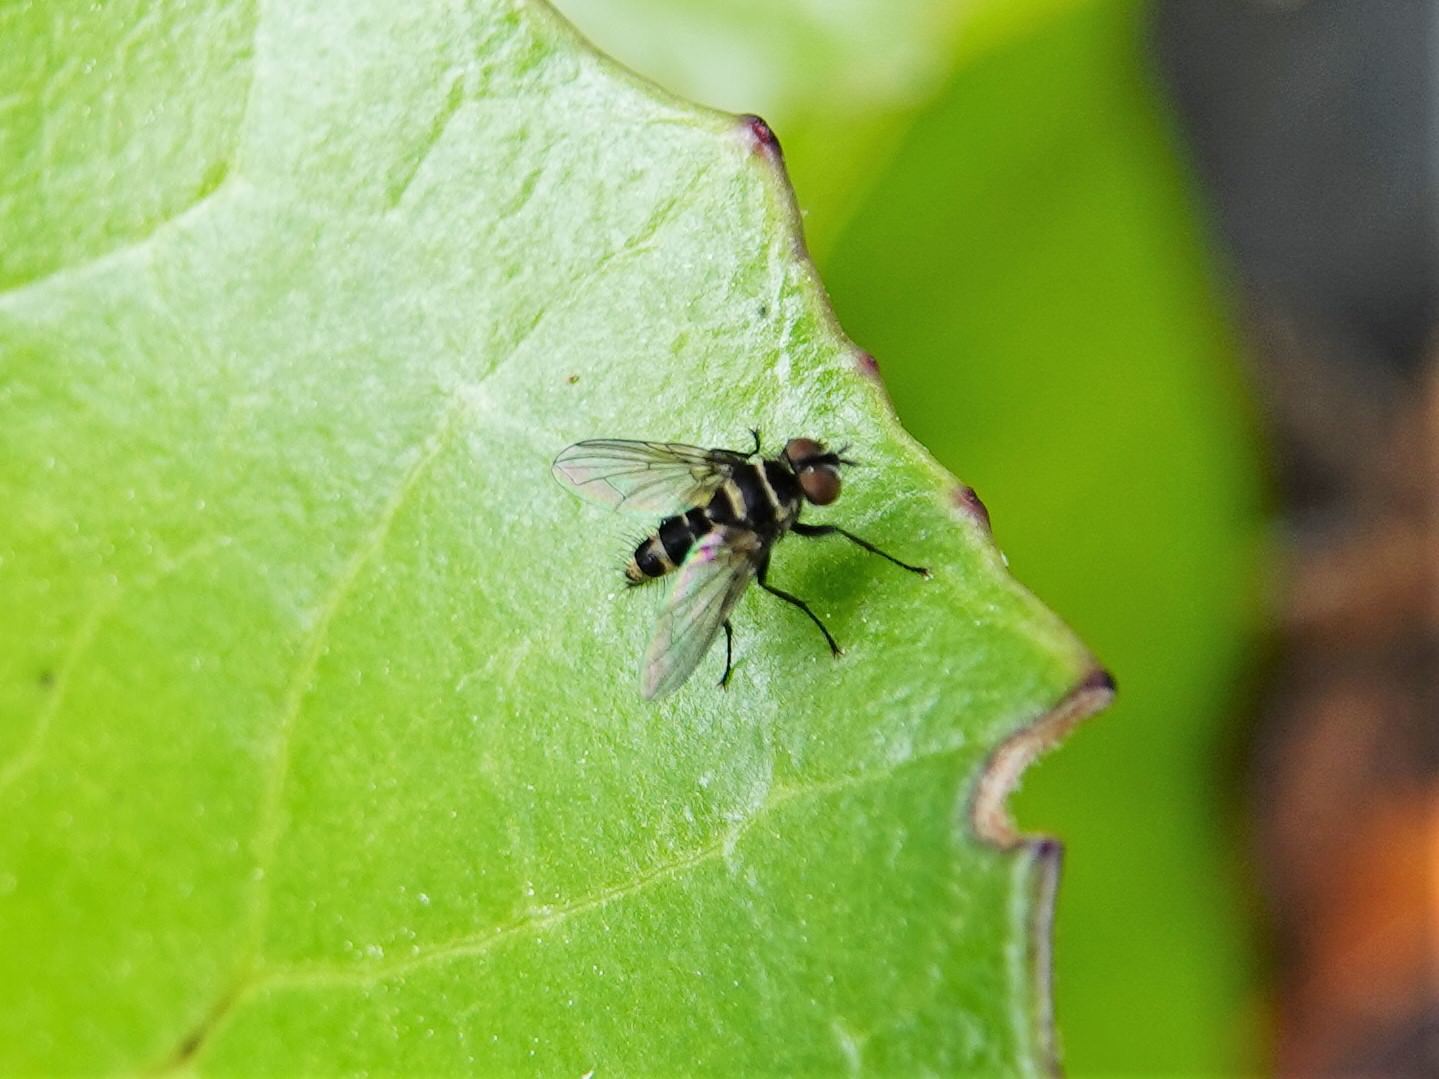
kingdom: Animalia
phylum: Arthropoda
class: Insecta
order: Diptera
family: Tachinidae
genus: Trigonospila
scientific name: Trigonospila brevifacies
